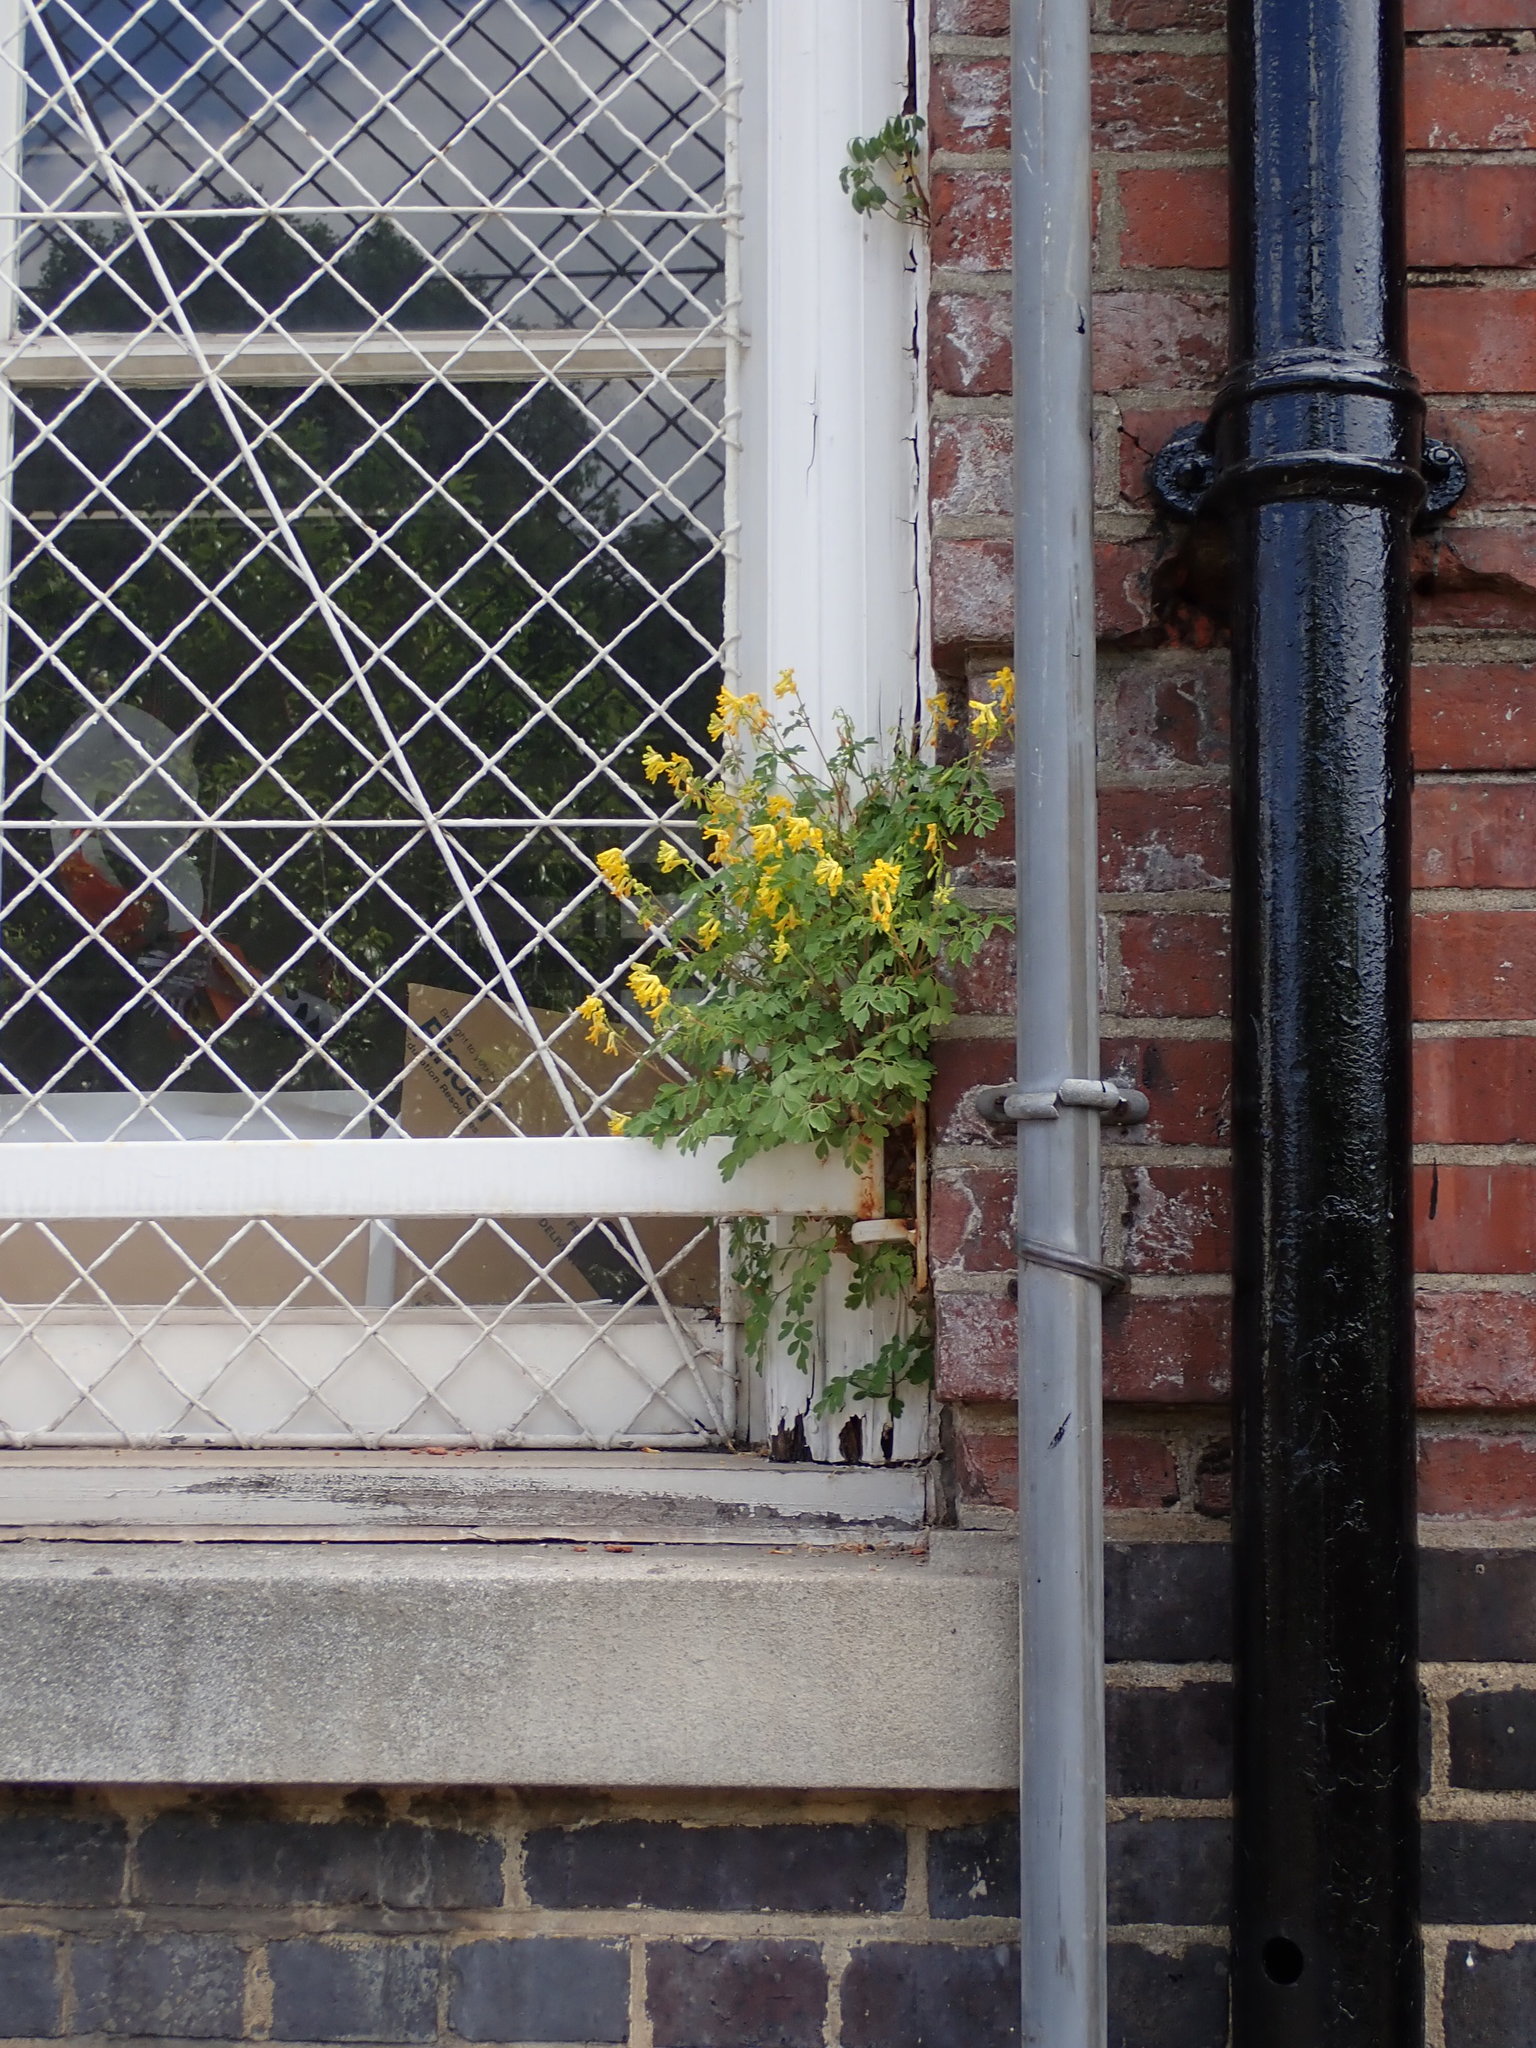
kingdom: Plantae
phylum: Tracheophyta
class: Magnoliopsida
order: Ranunculales
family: Papaveraceae
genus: Pseudofumaria
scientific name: Pseudofumaria lutea
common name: Yellow corydalis
